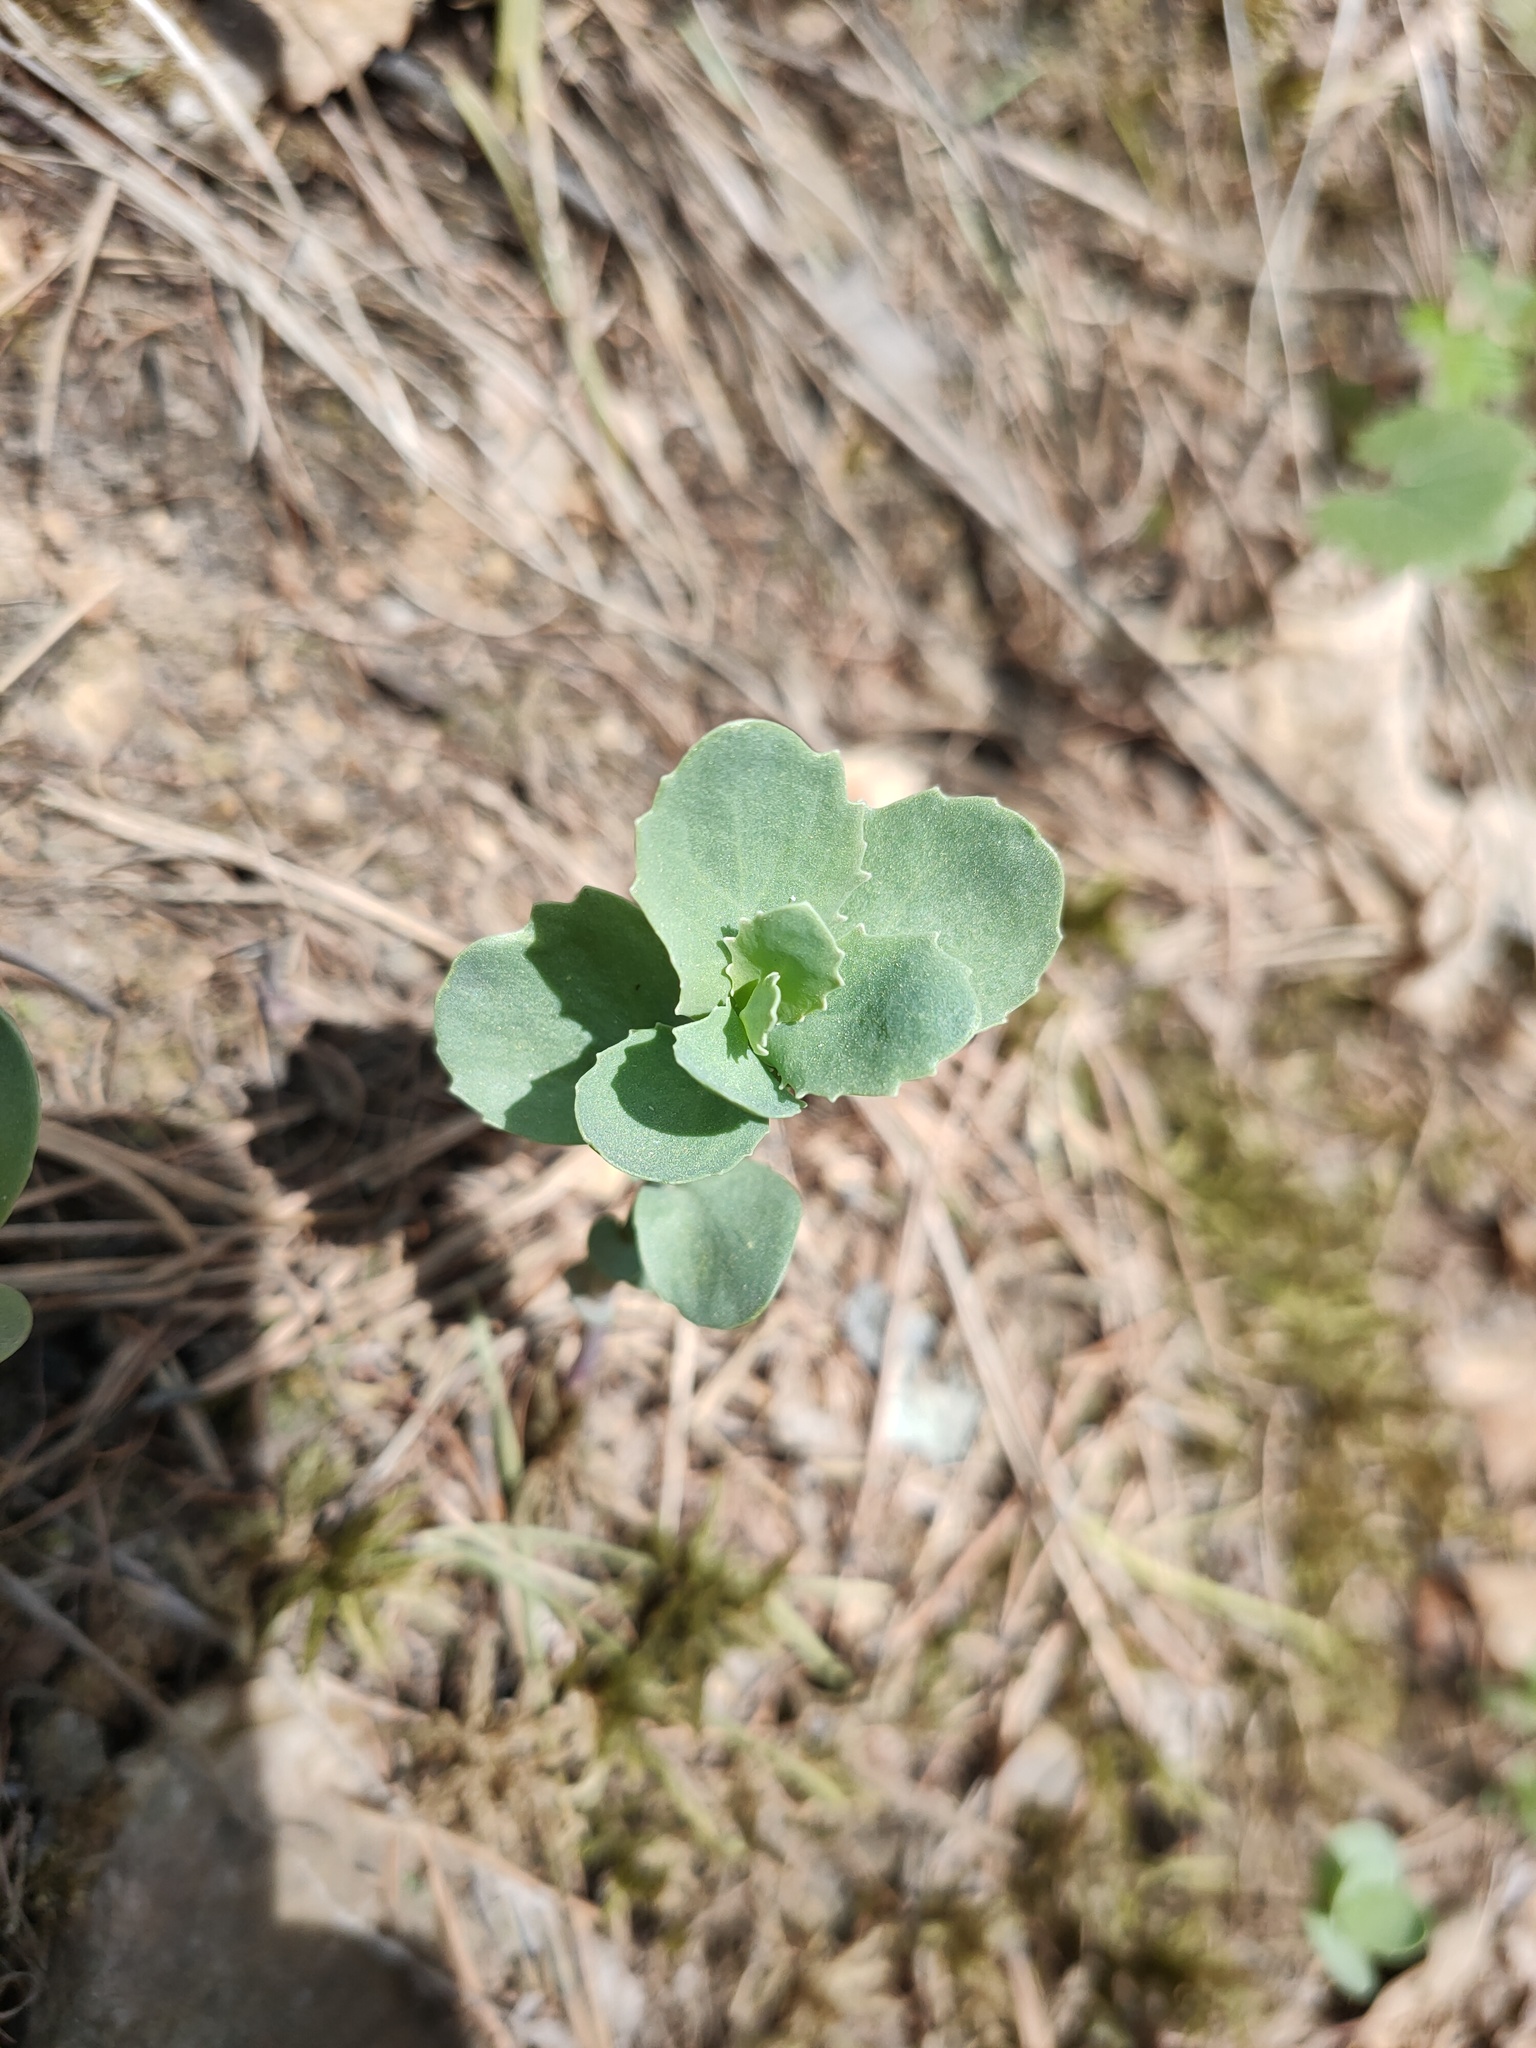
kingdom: Plantae
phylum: Tracheophyta
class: Magnoliopsida
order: Saxifragales
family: Crassulaceae
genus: Hylotelephium
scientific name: Hylotelephium telephium
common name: Live-forever
